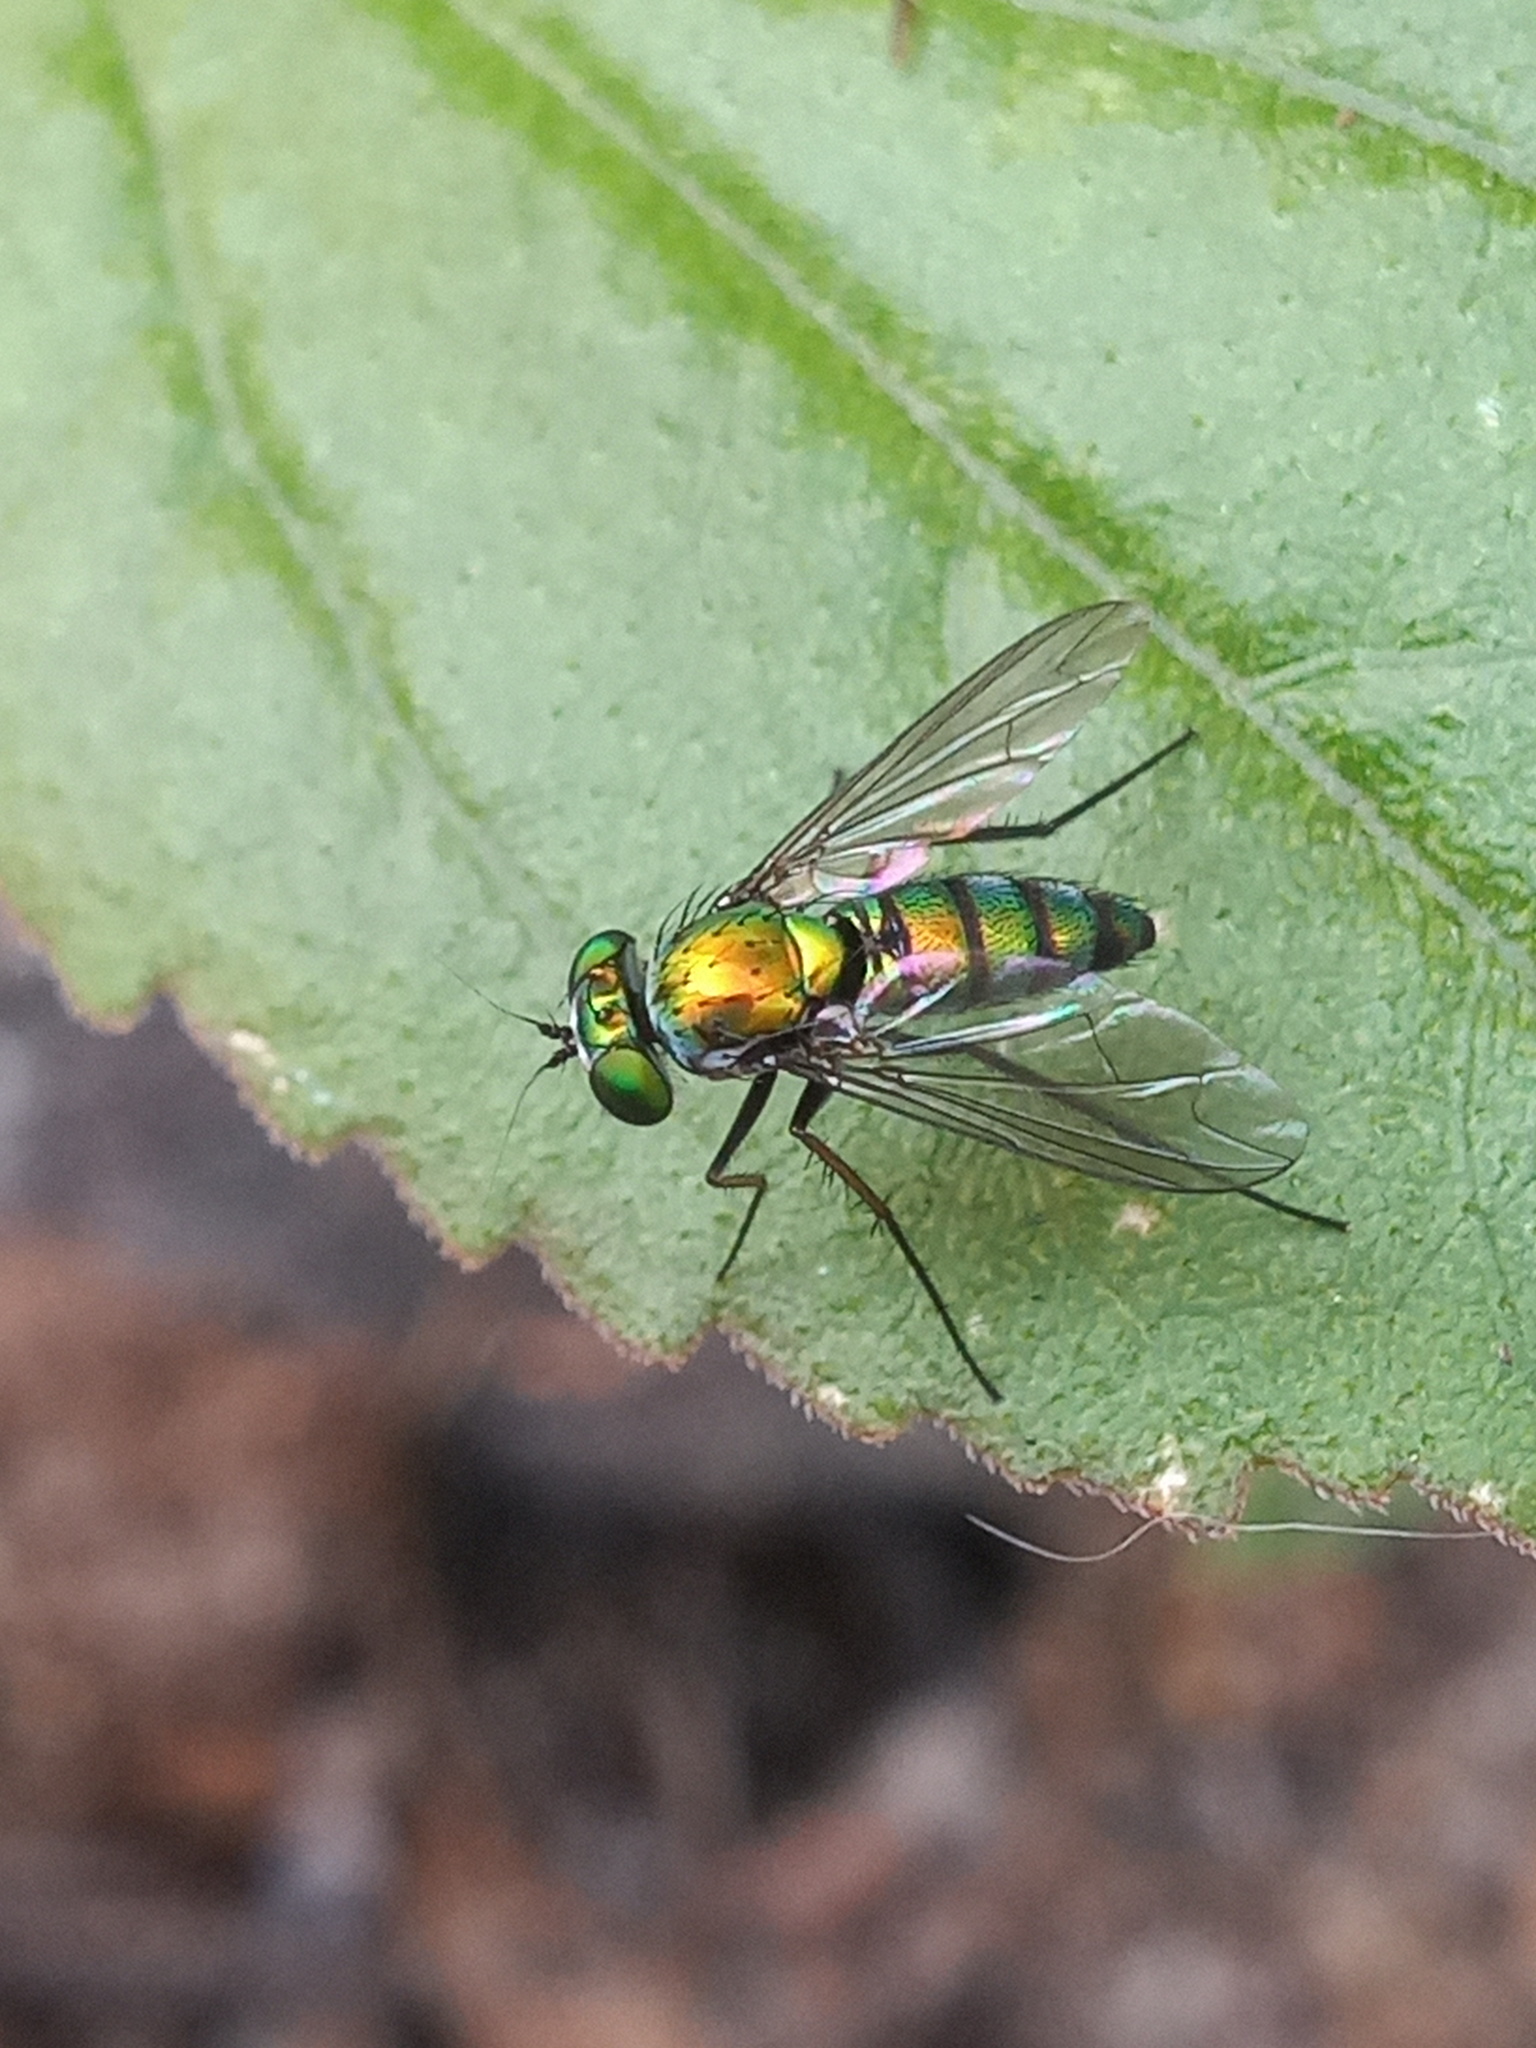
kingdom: Animalia
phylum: Arthropoda
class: Insecta
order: Diptera
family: Dolichopodidae
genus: Condylostylus
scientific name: Condylostylus longicornis
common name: Long-legged fly
